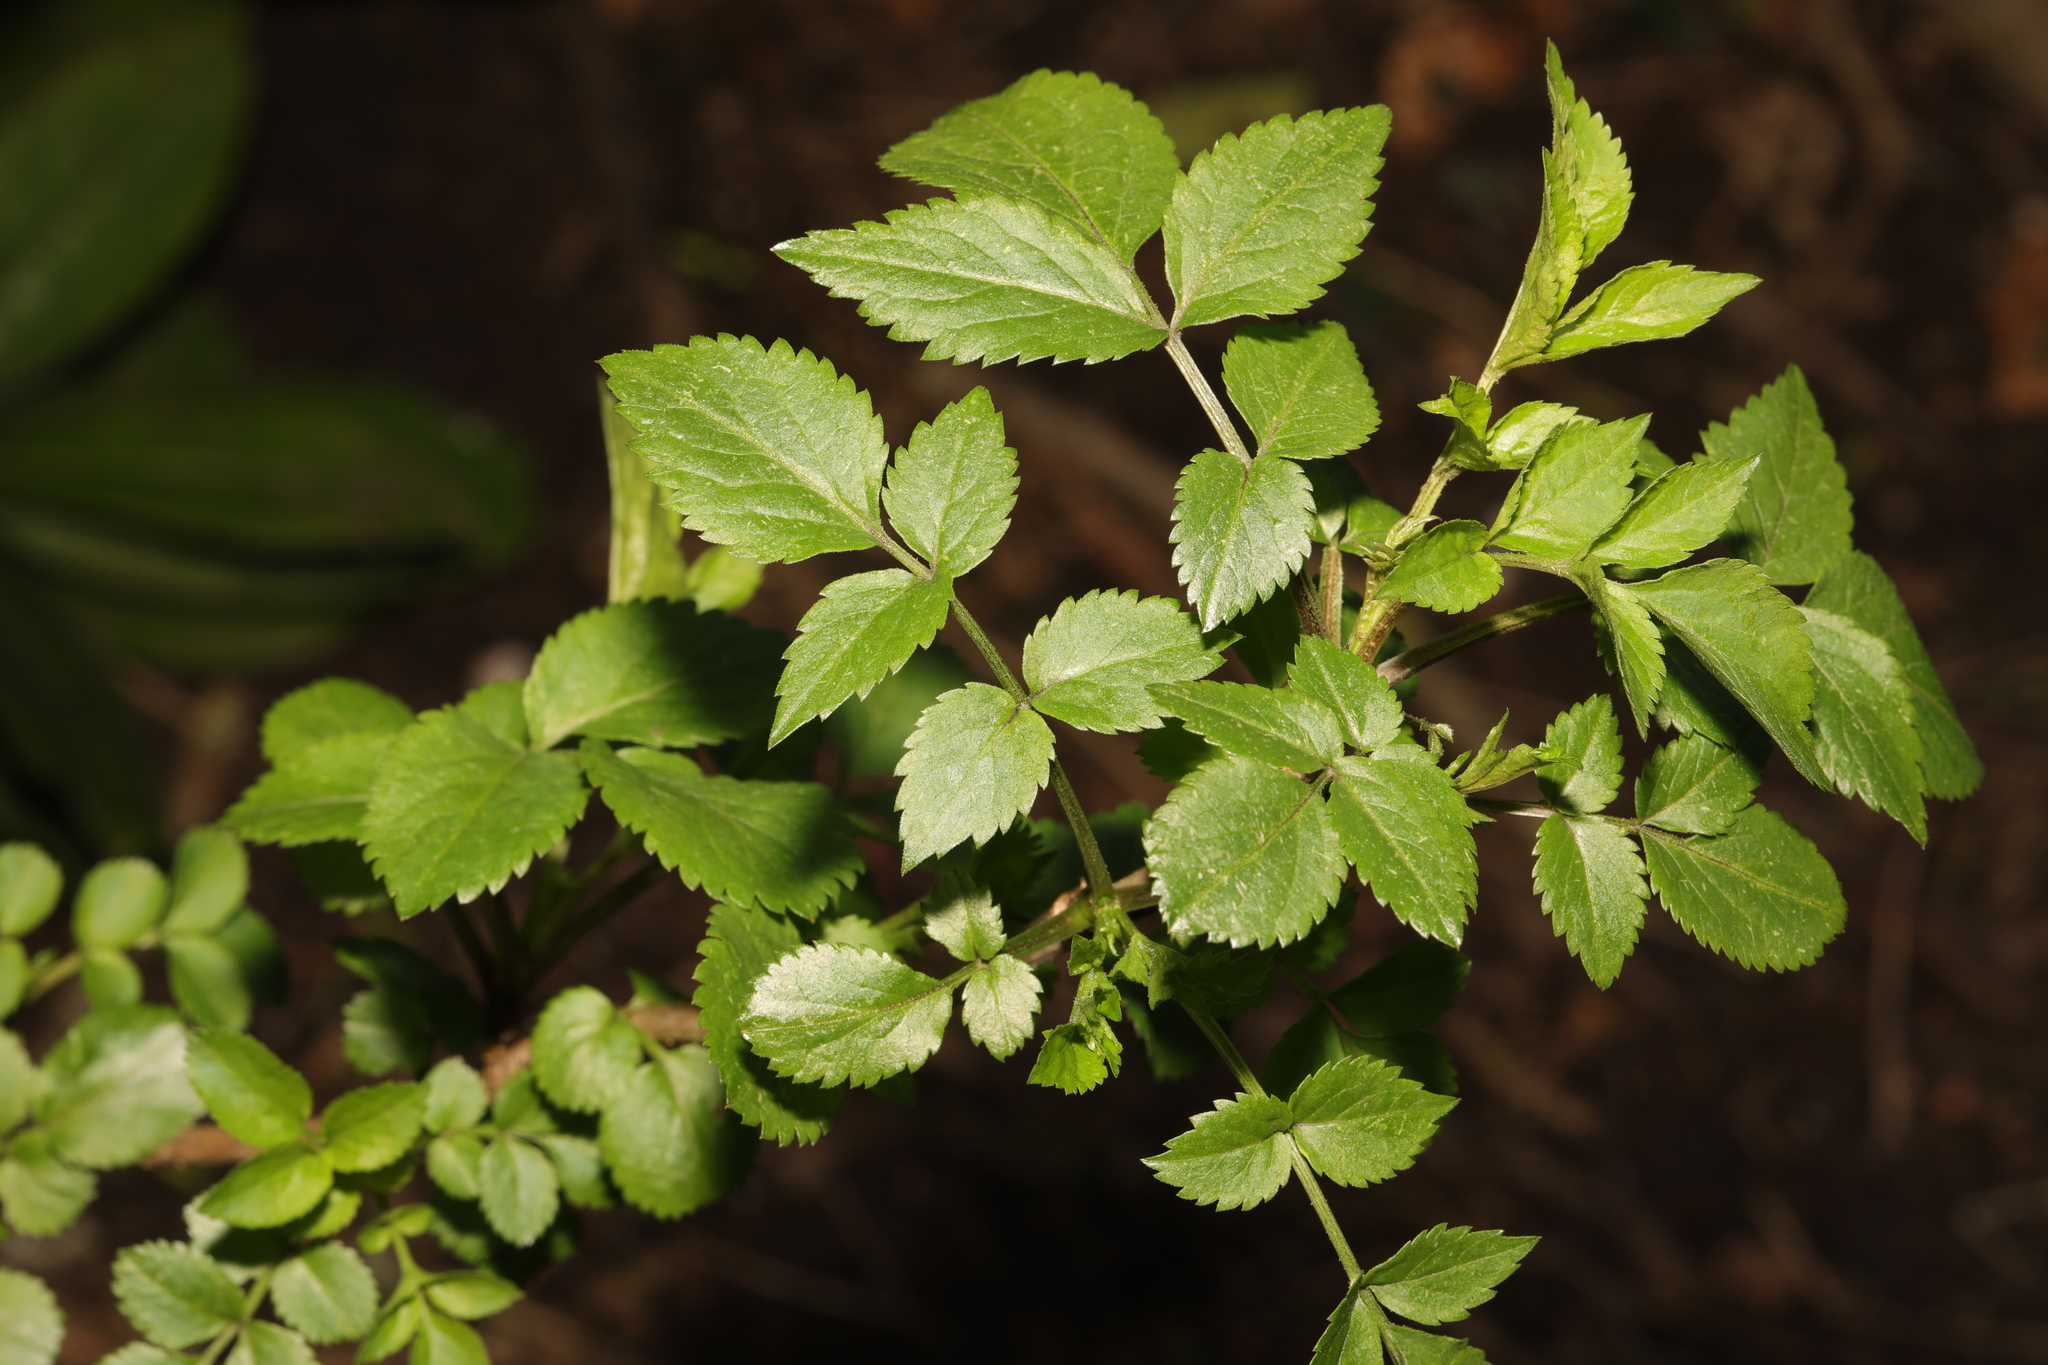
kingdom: Plantae
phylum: Tracheophyta
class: Magnoliopsida
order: Dipsacales
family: Viburnaceae
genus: Sambucus
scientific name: Sambucus nigra
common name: Elder
